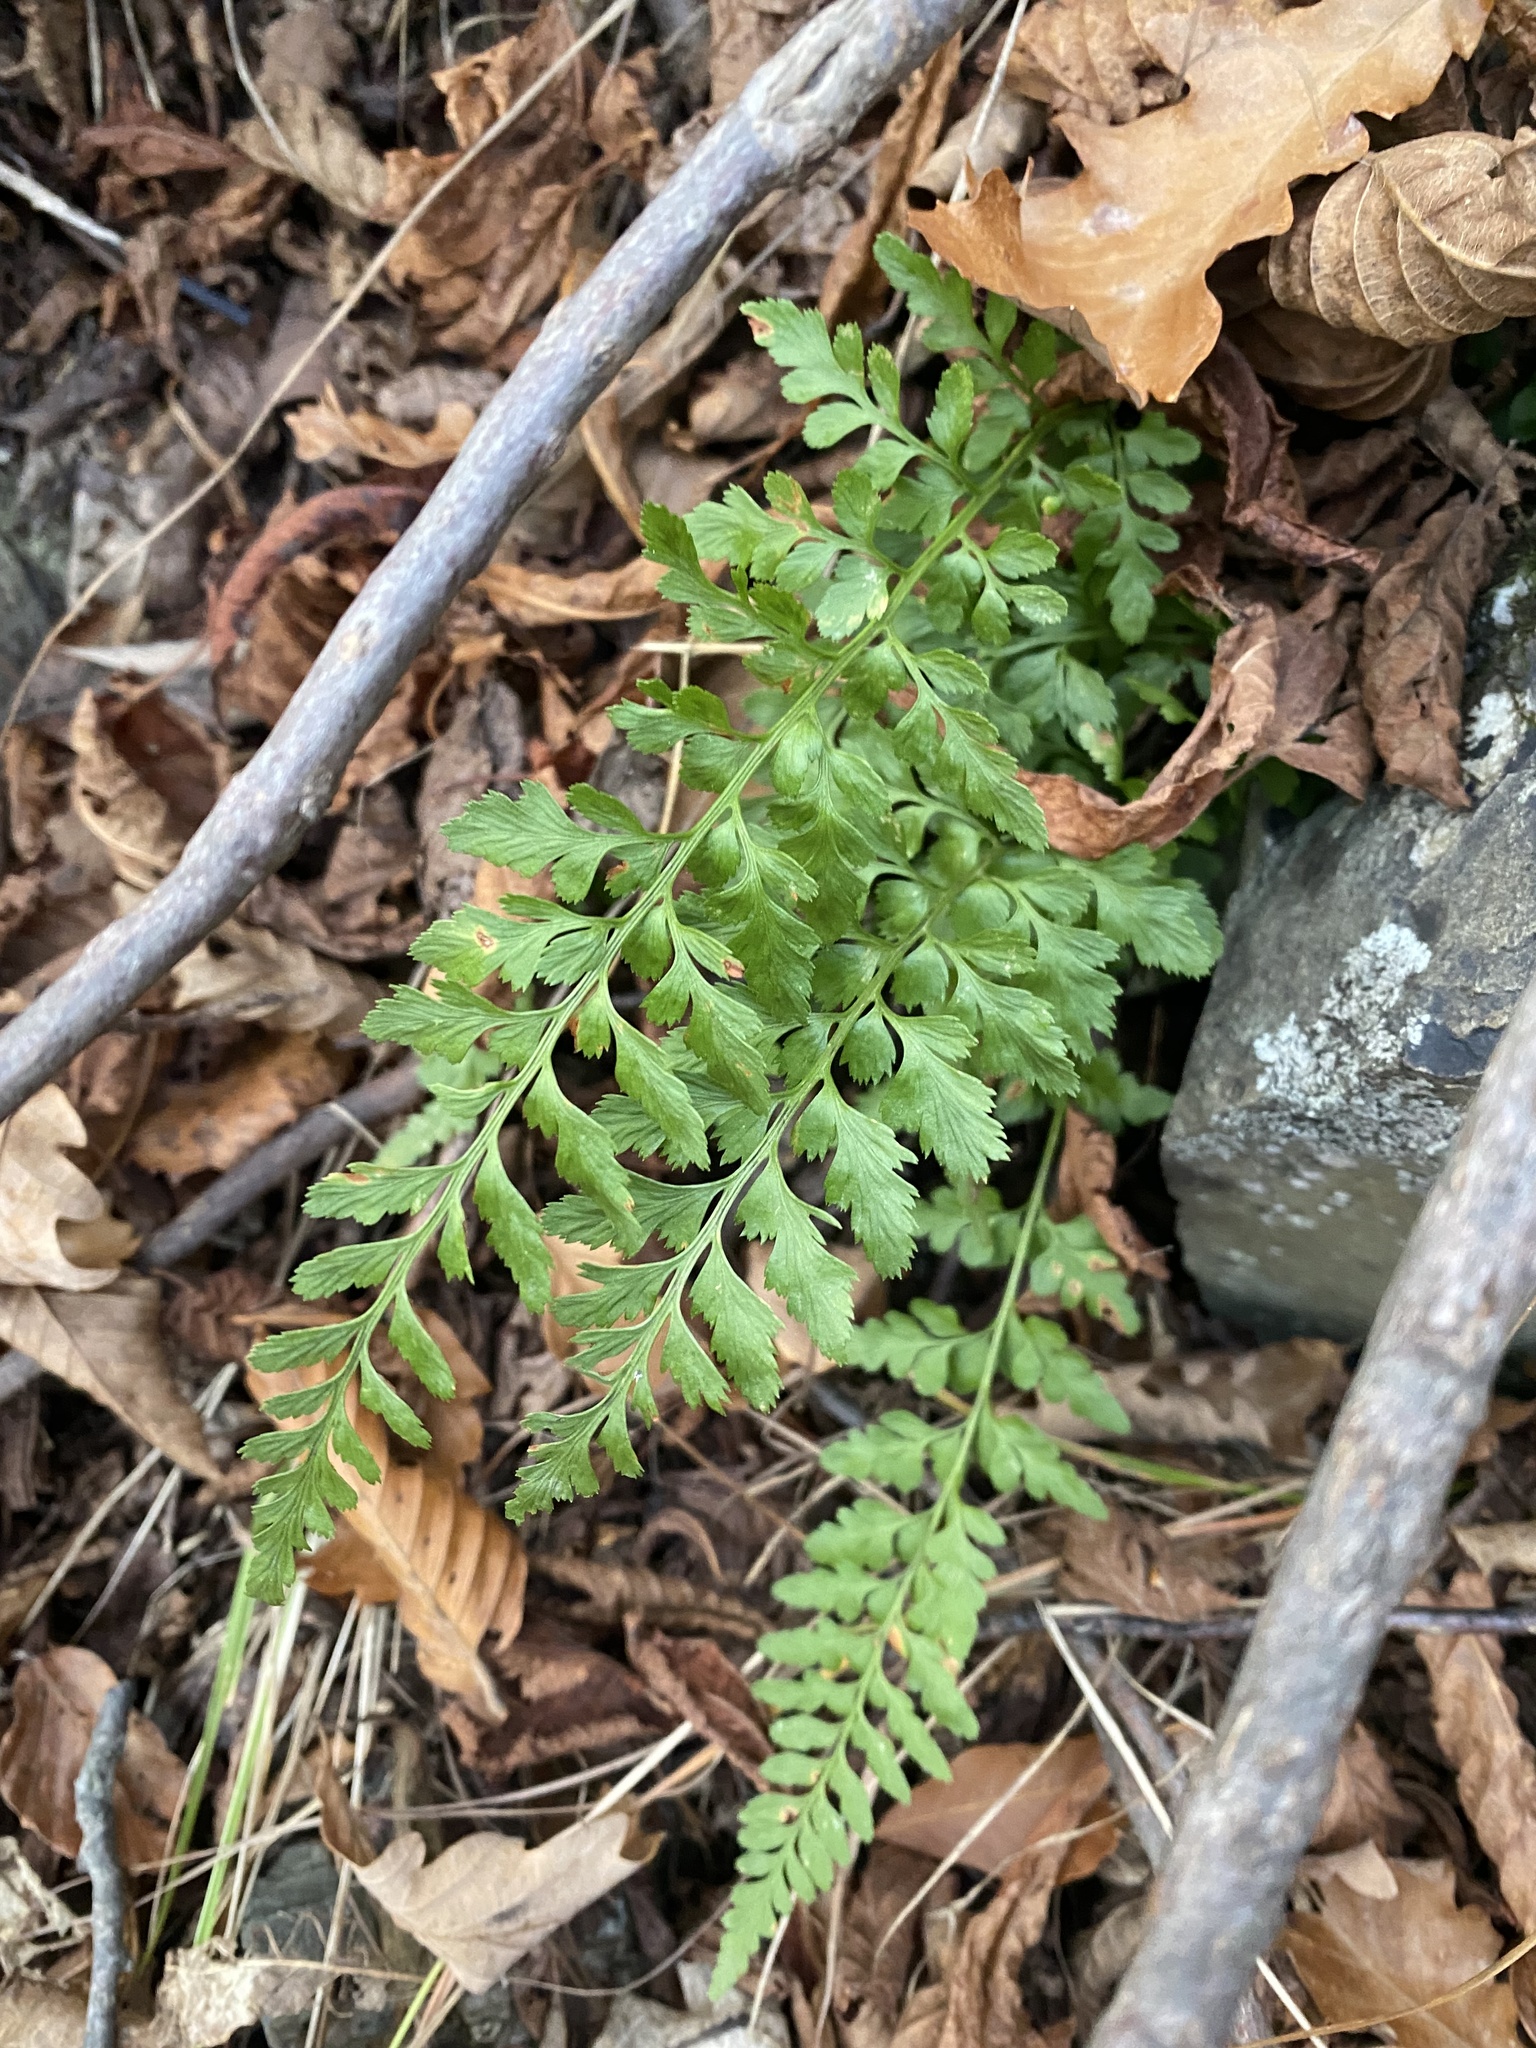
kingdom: Plantae
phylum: Tracheophyta
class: Polypodiopsida
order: Polypodiales
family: Aspleniaceae
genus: Asplenium
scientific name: Asplenium adiantum-nigrum
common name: Black spleenwort
